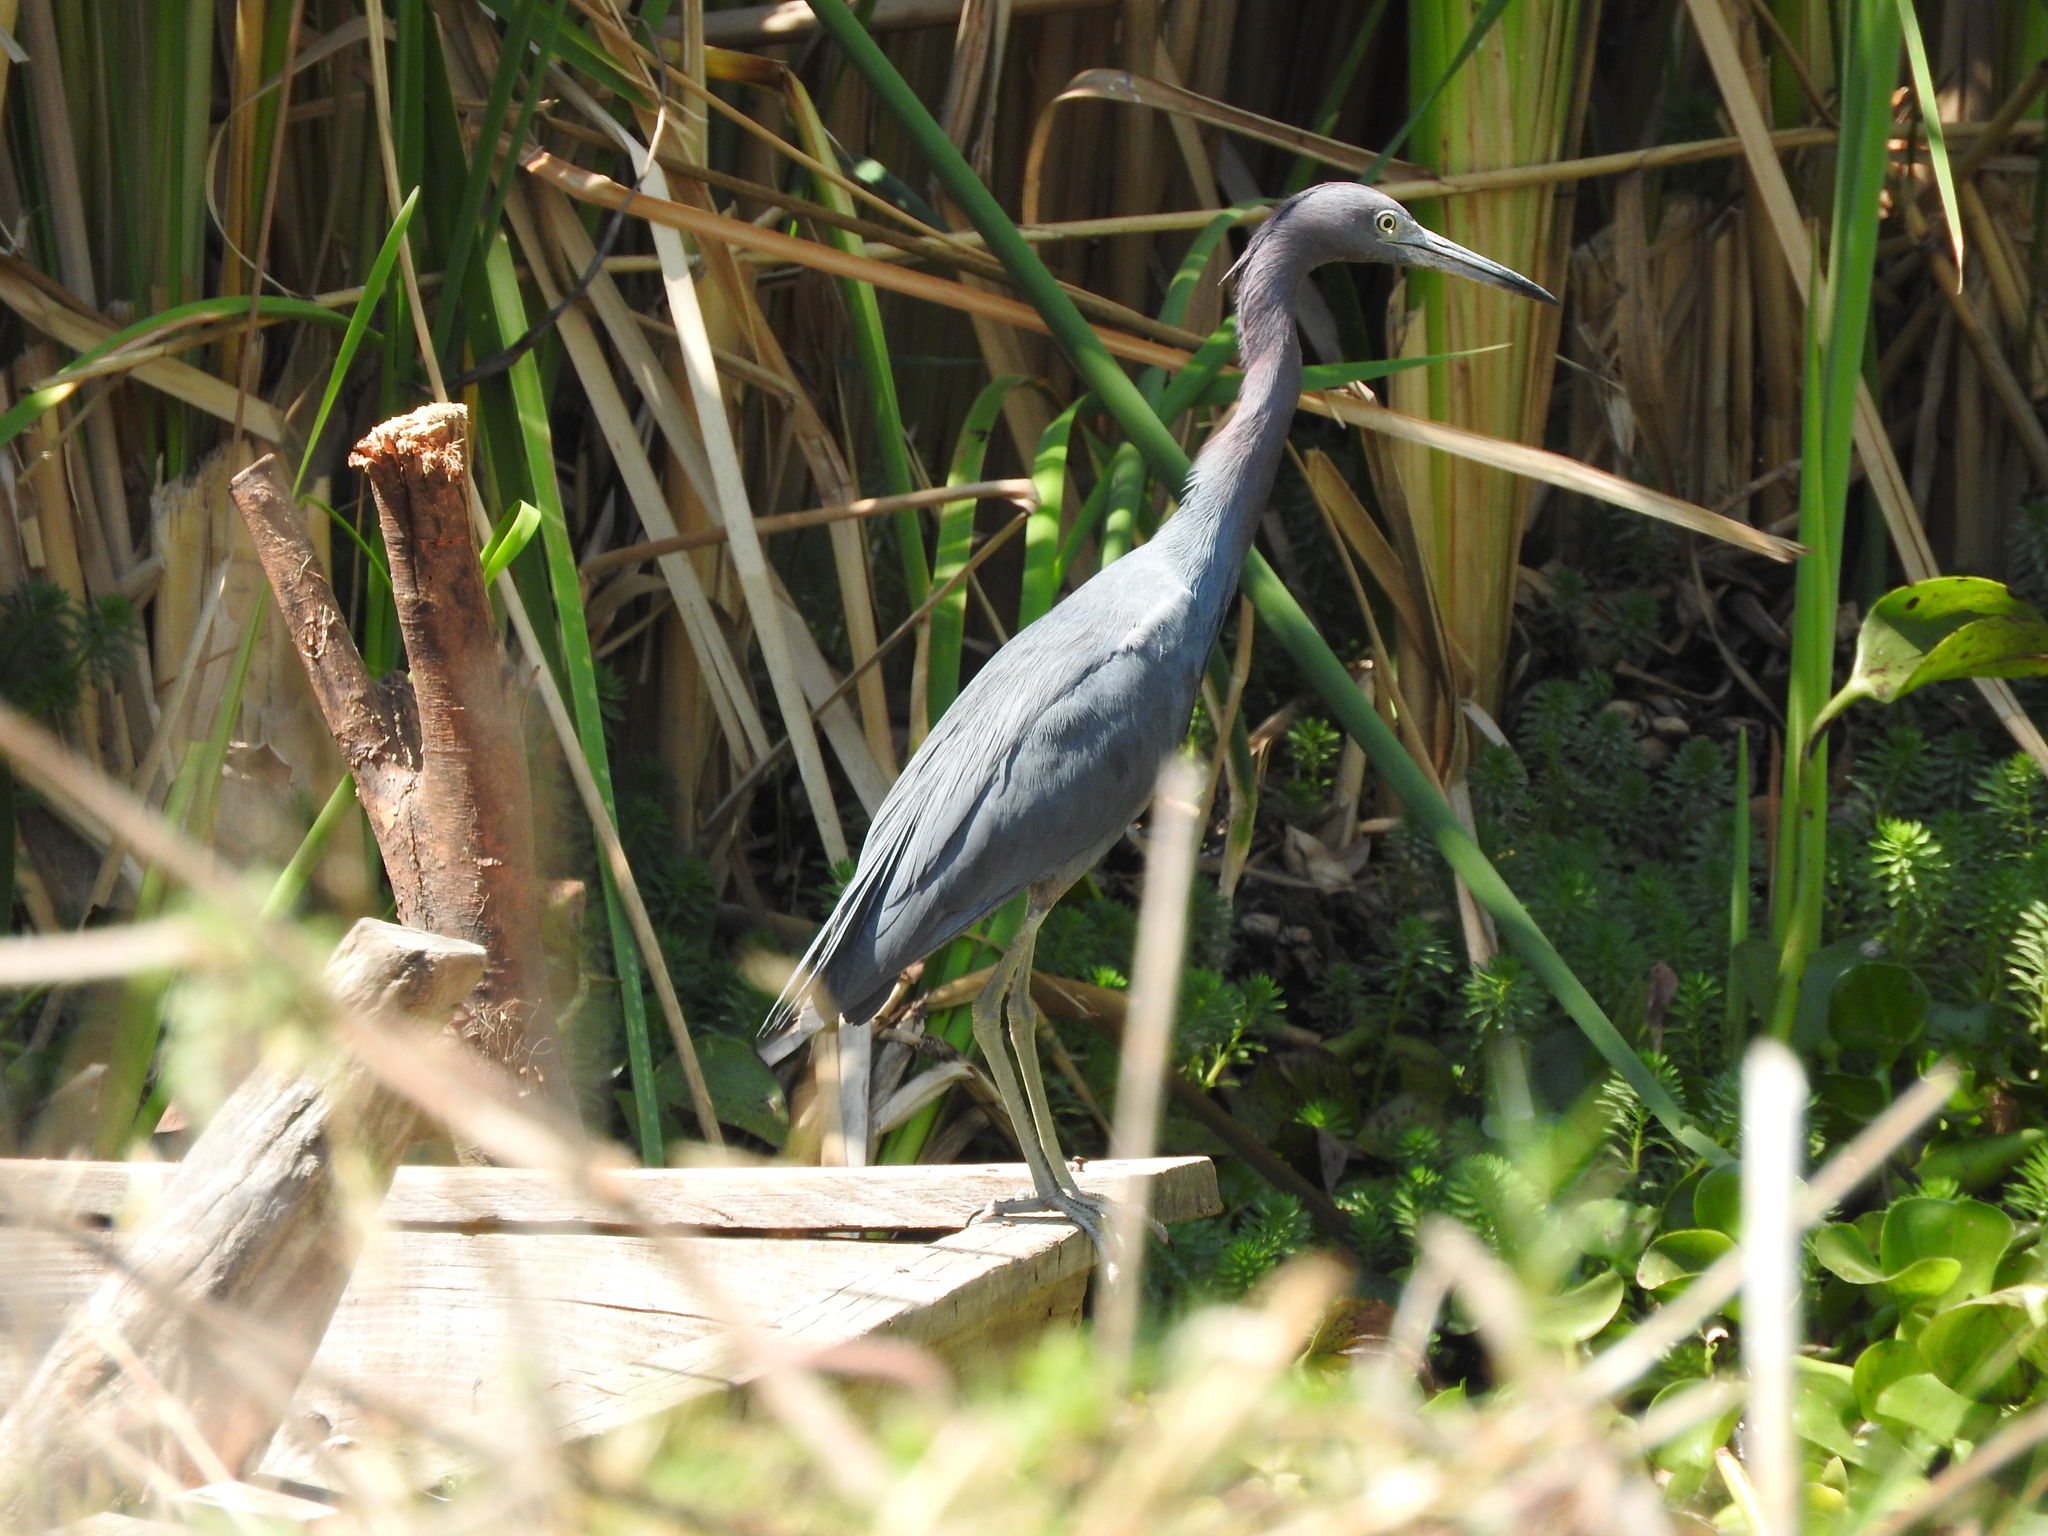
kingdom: Animalia
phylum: Chordata
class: Aves
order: Pelecaniformes
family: Ardeidae
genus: Egretta
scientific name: Egretta caerulea
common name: Little blue heron
